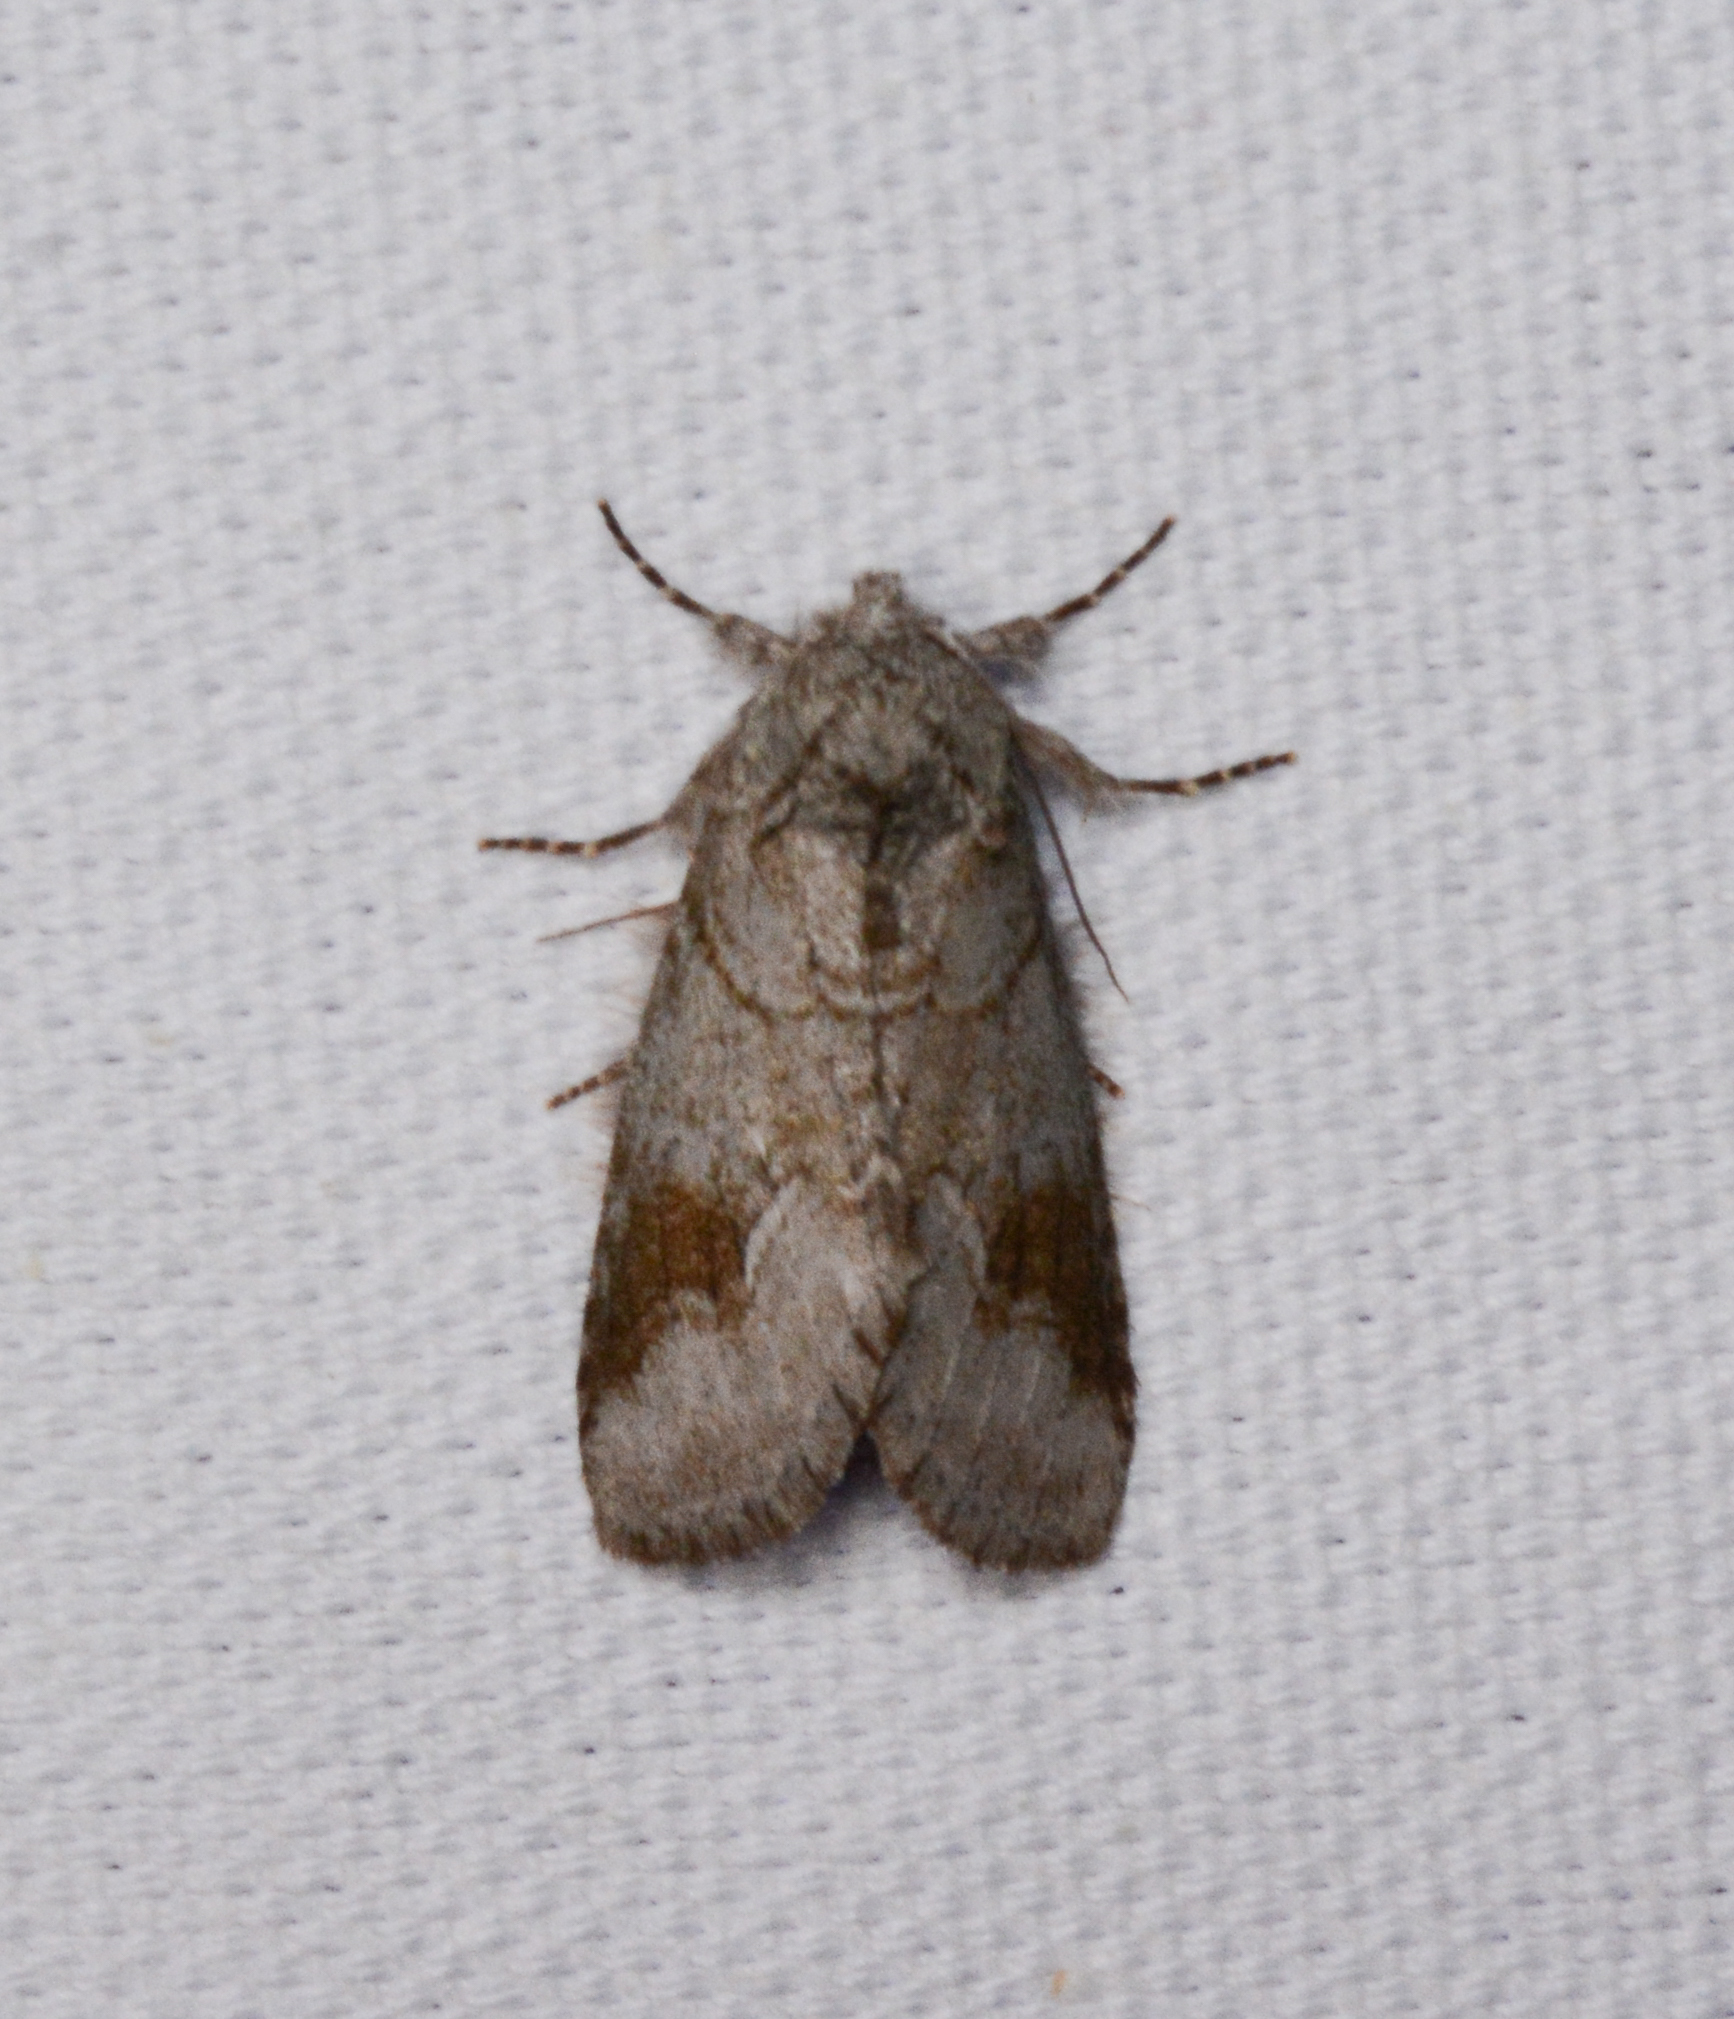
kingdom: Animalia
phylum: Arthropoda
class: Insecta
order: Lepidoptera
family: Notodontidae
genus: Lochmaeus
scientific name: Lochmaeus bilineata
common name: Double-lined prominent
